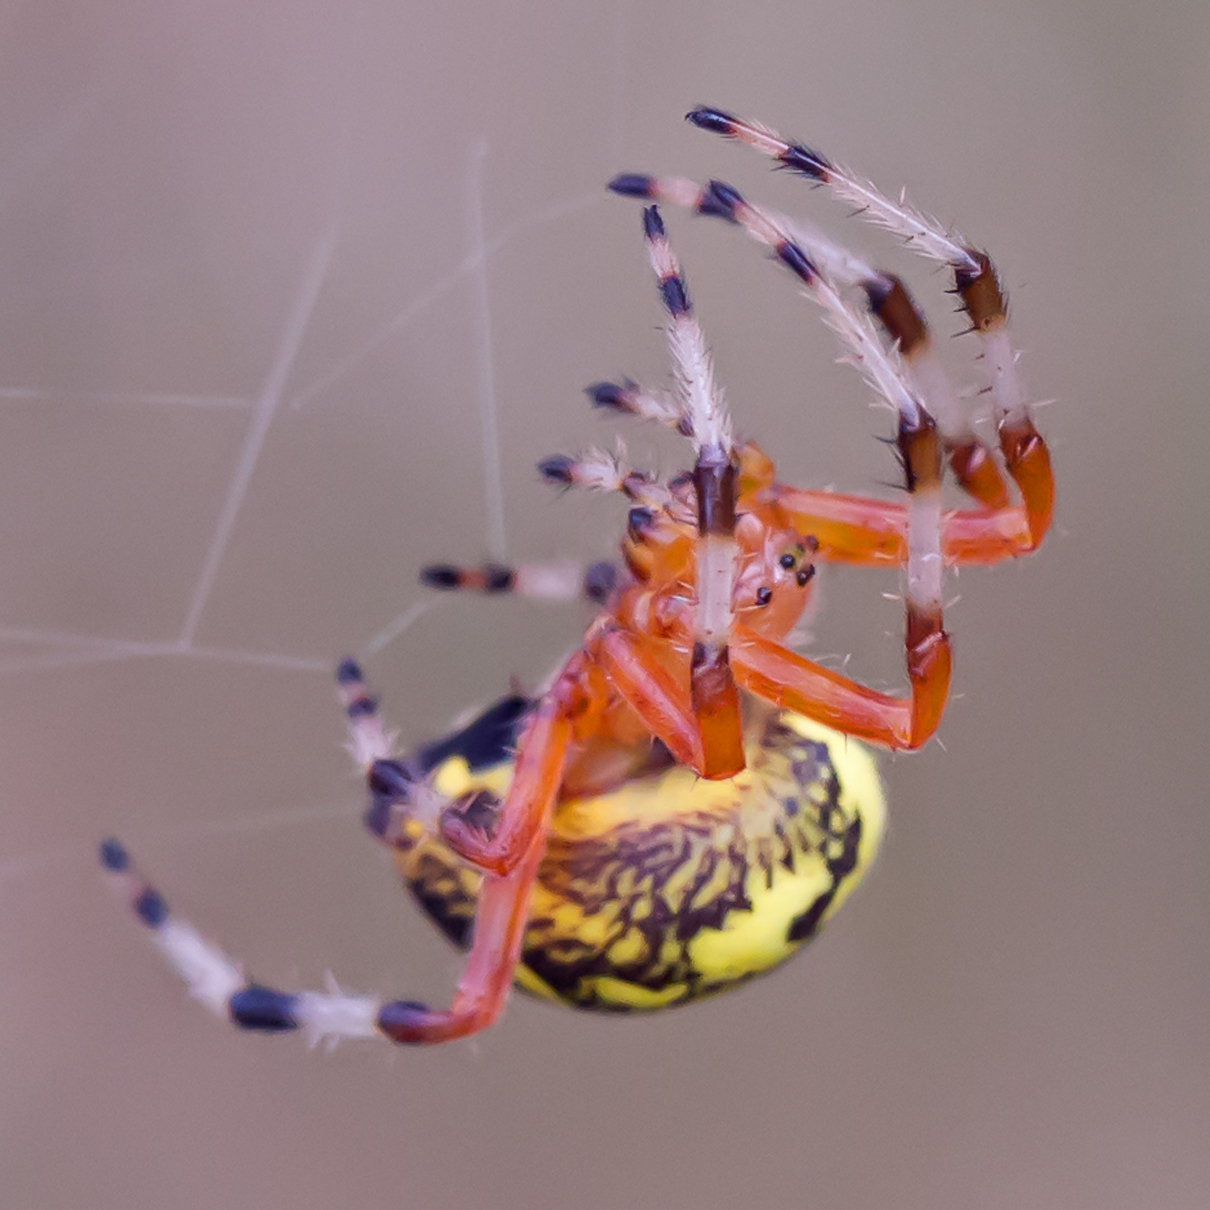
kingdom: Animalia
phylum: Arthropoda
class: Arachnida
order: Araneae
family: Araneidae
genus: Araneus
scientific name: Araneus marmoreus
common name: Marbled orbweaver
